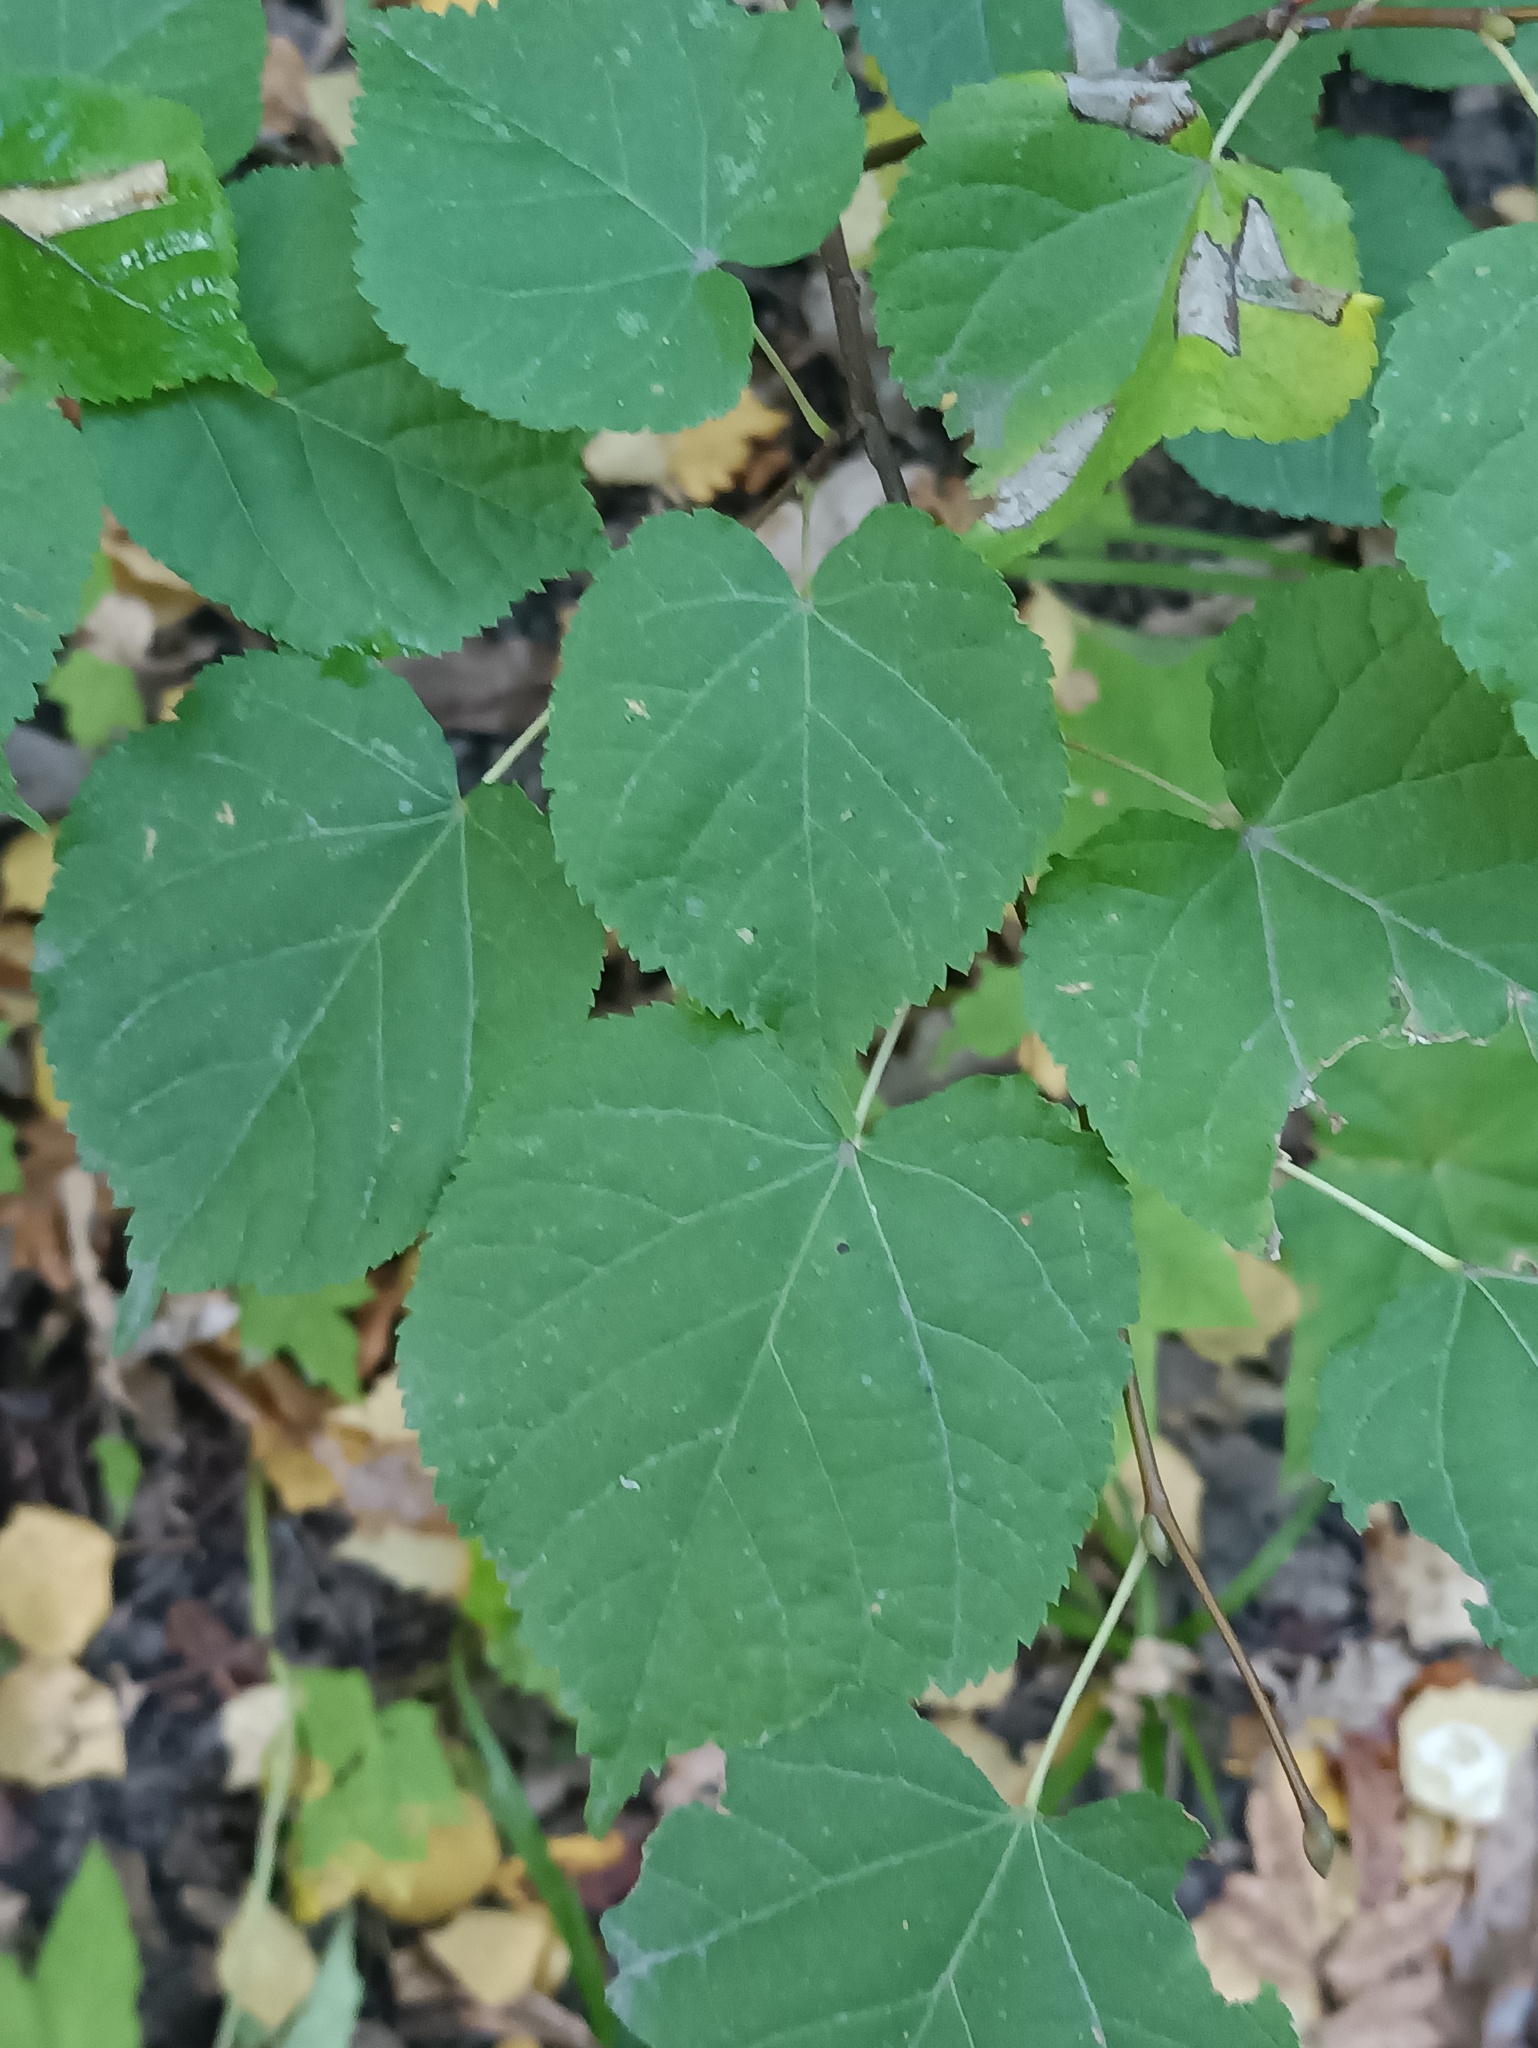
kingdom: Plantae
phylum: Tracheophyta
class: Magnoliopsida
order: Malvales
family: Malvaceae
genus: Tilia
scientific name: Tilia cordata
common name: Small-leaved lime
